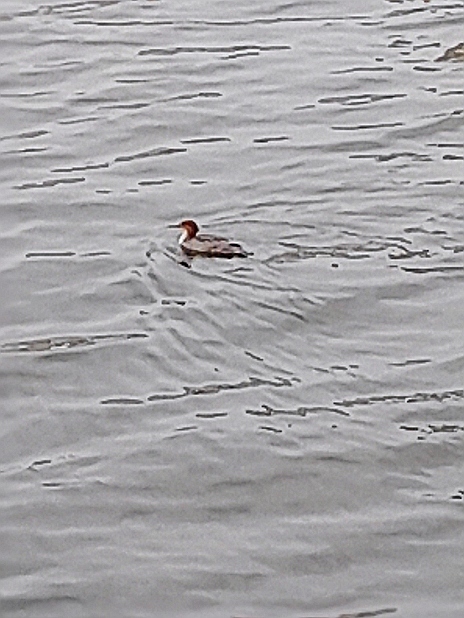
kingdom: Animalia
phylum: Chordata
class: Aves
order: Anseriformes
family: Anatidae
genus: Mergus
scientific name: Mergus serrator
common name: Red-breasted merganser
